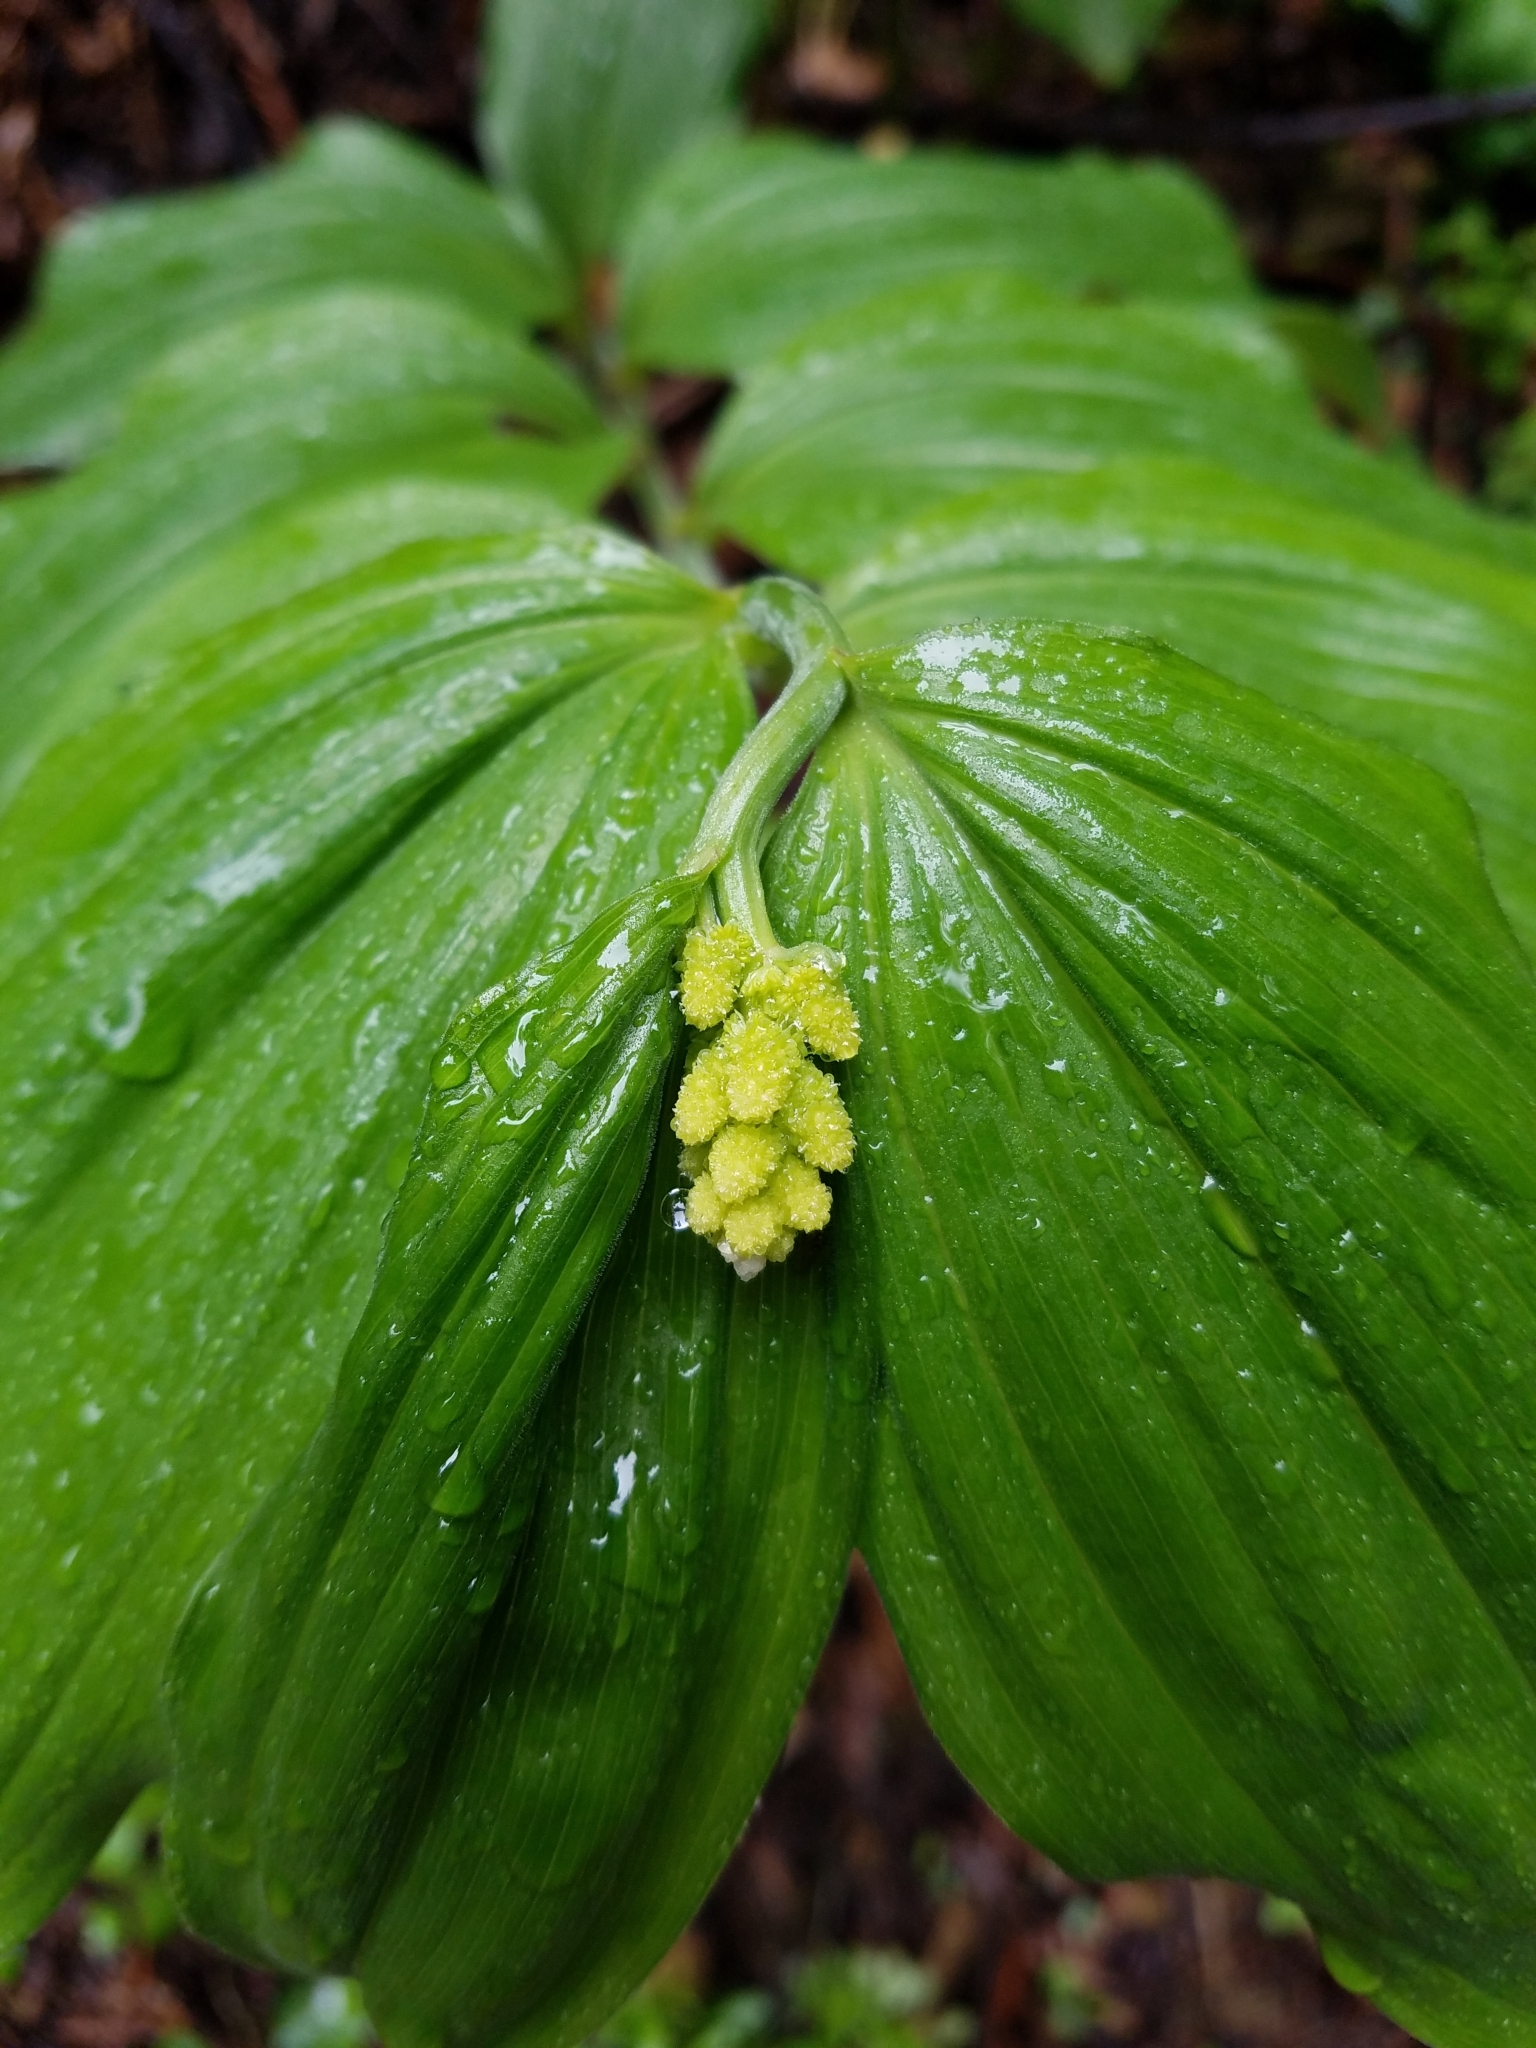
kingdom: Plantae
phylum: Tracheophyta
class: Liliopsida
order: Asparagales
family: Asparagaceae
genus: Maianthemum
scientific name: Maianthemum racemosum
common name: False spikenard
